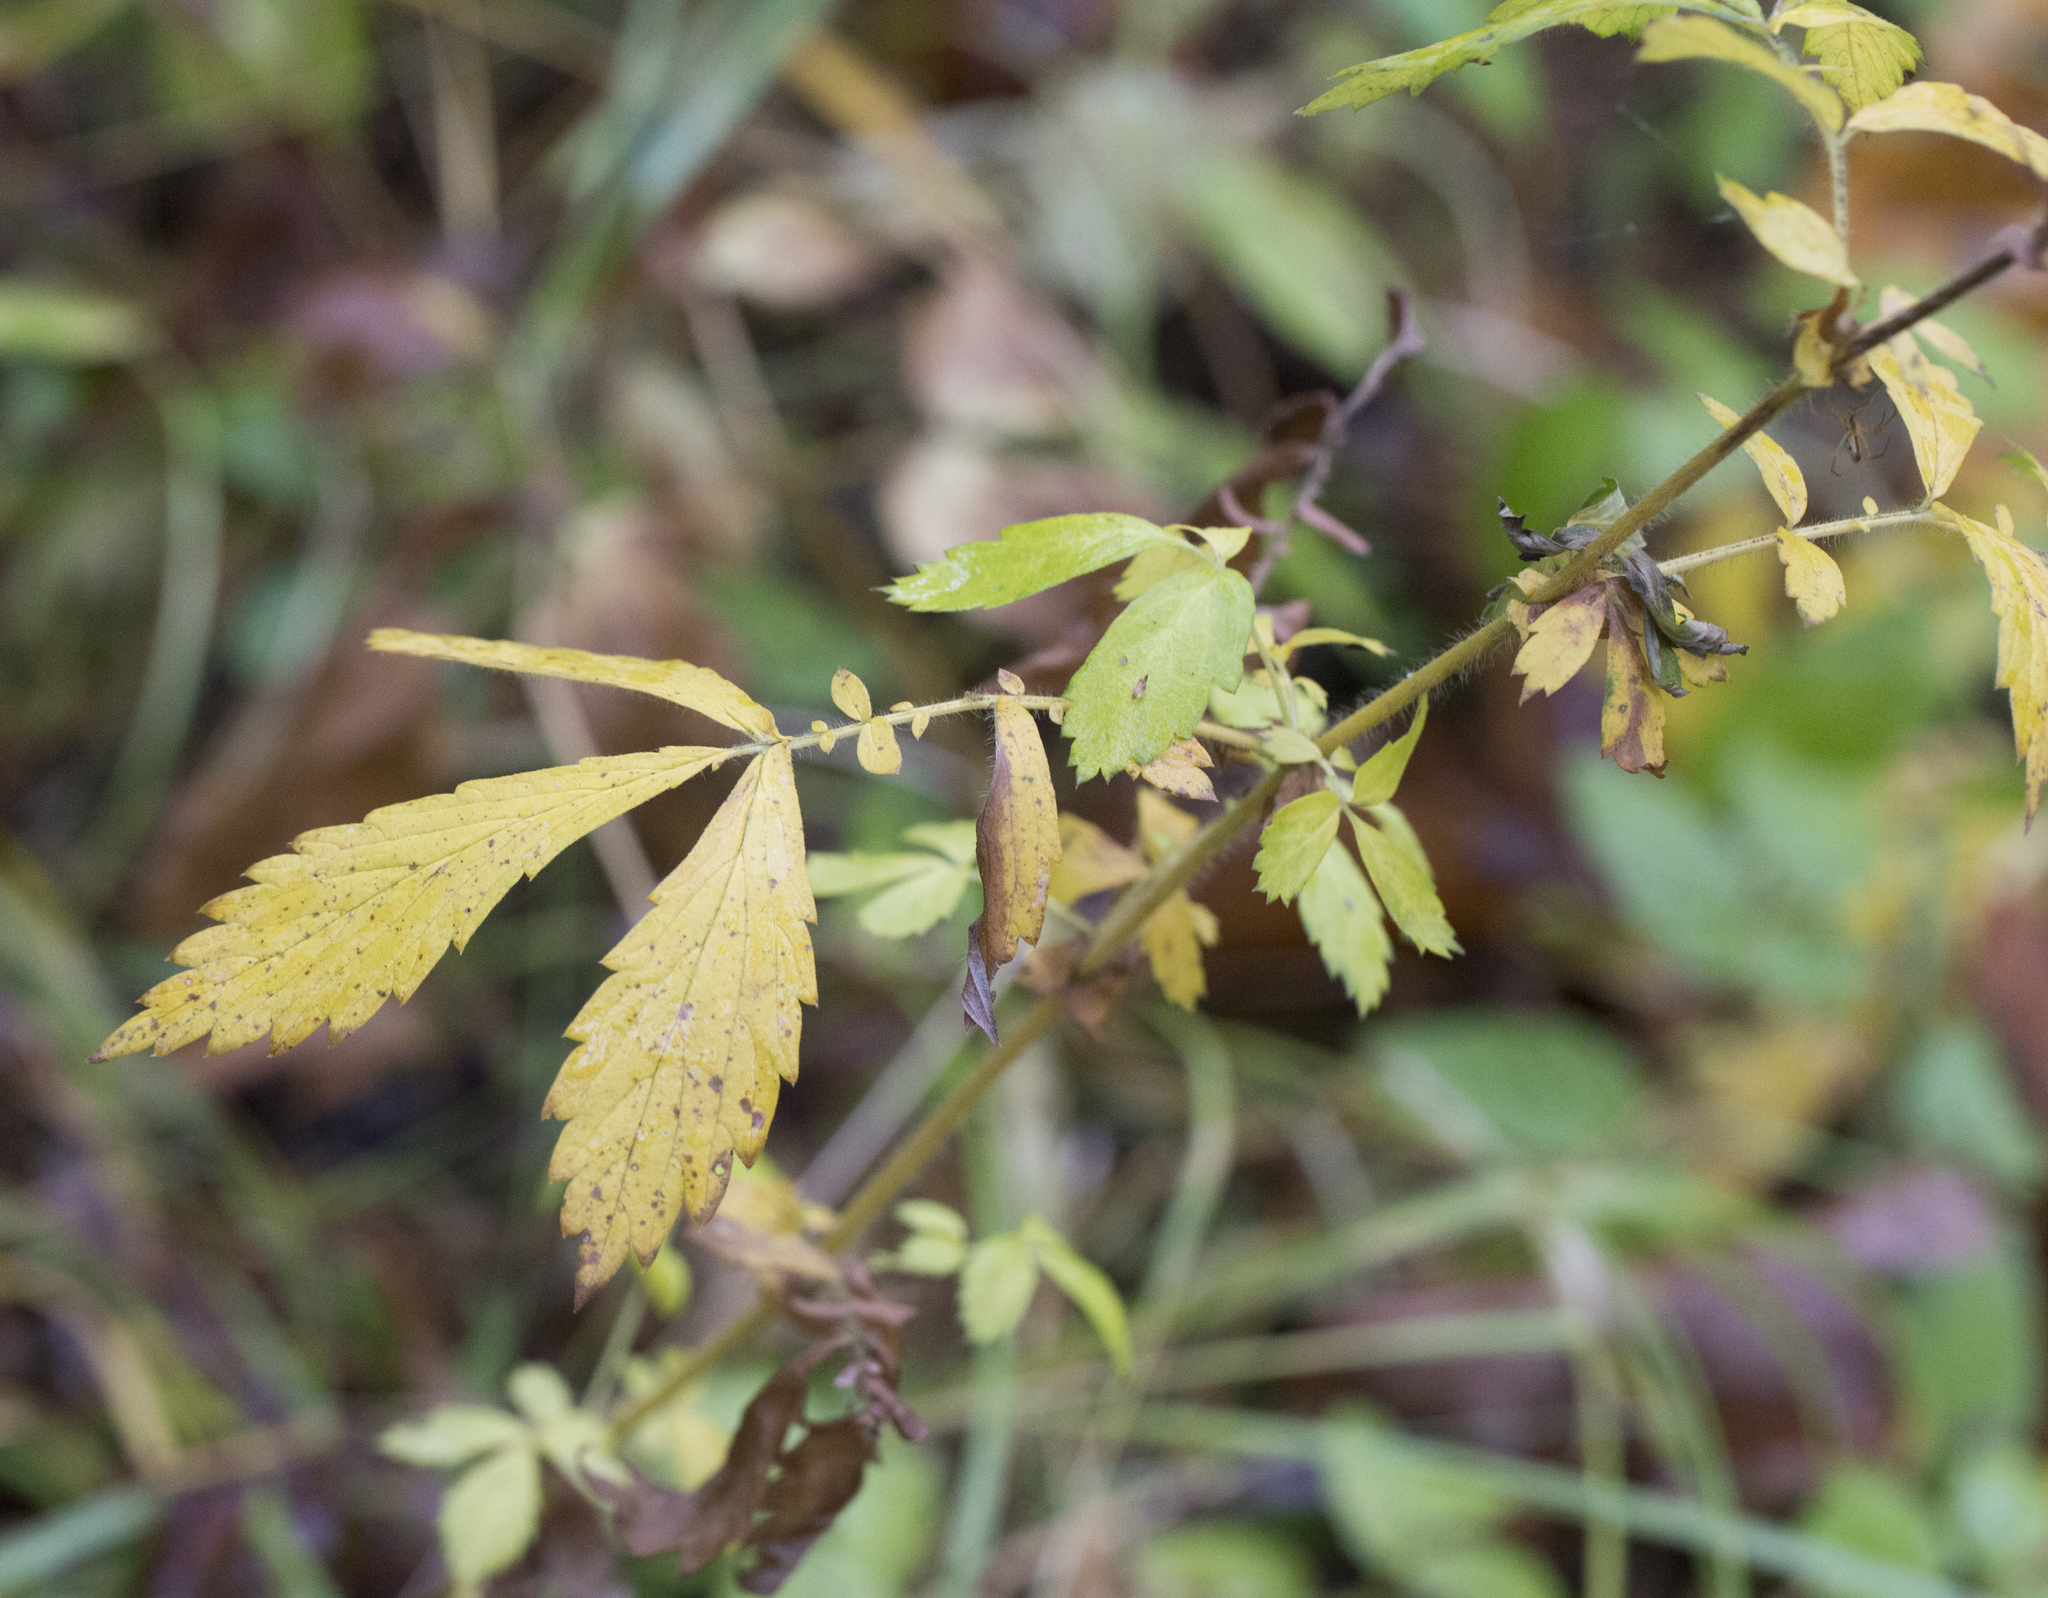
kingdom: Plantae
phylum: Tracheophyta
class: Magnoliopsida
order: Rosales
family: Rosaceae
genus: Agrimonia
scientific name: Agrimonia pilosa
